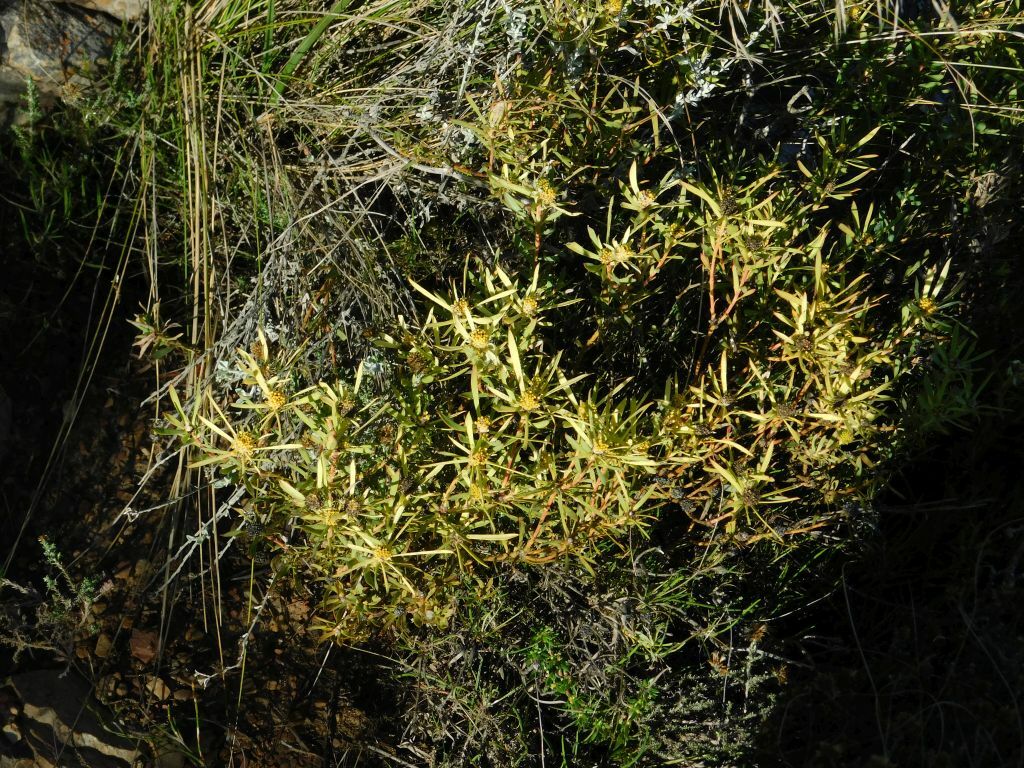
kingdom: Plantae
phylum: Tracheophyta
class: Magnoliopsida
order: Proteales
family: Proteaceae
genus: Leucadendron
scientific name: Leucadendron salignum
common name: Common sunshine conebush
